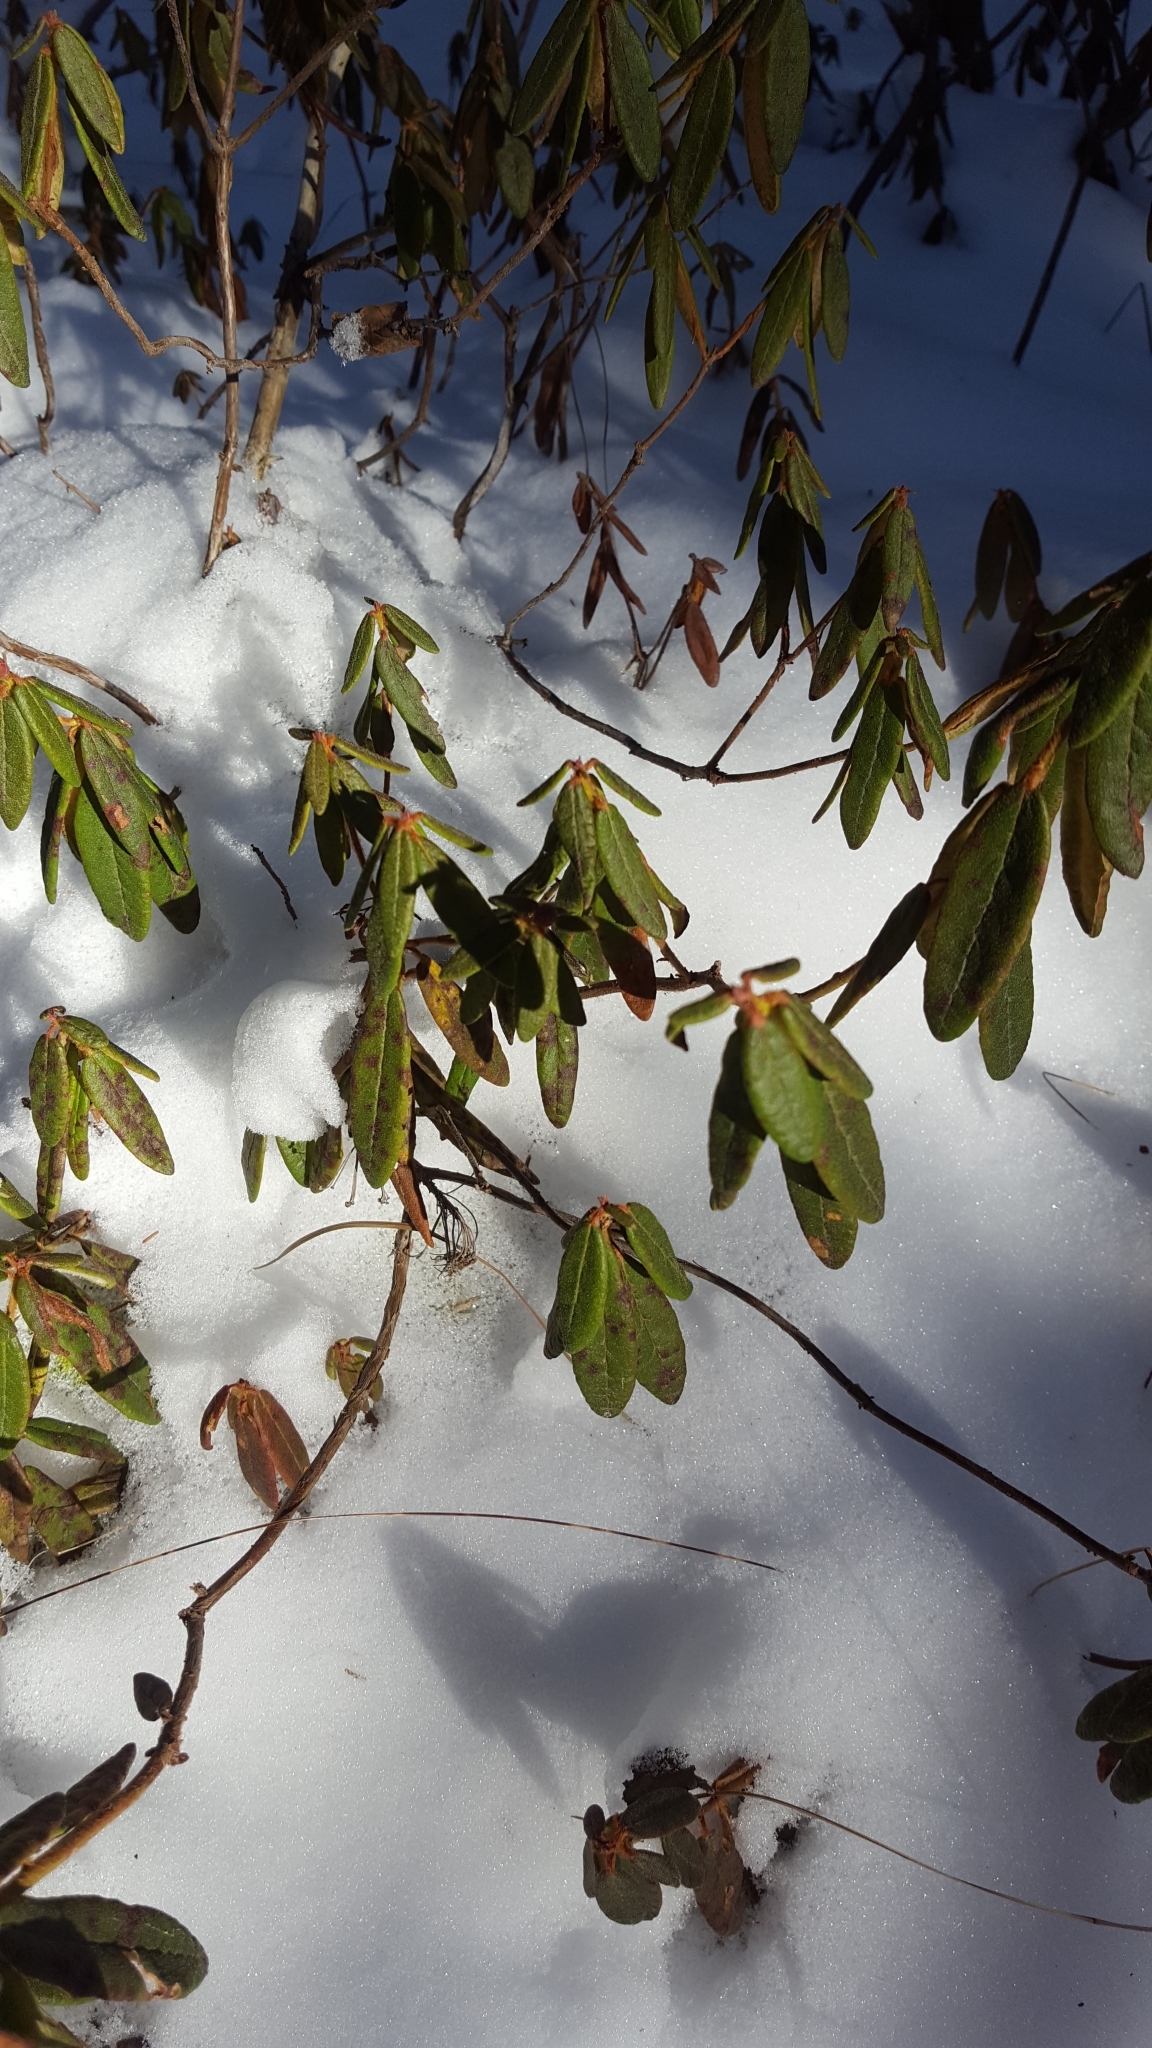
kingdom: Plantae
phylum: Tracheophyta
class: Magnoliopsida
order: Ericales
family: Ericaceae
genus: Rhododendron
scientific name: Rhododendron groenlandicum
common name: Bog labrador tea
